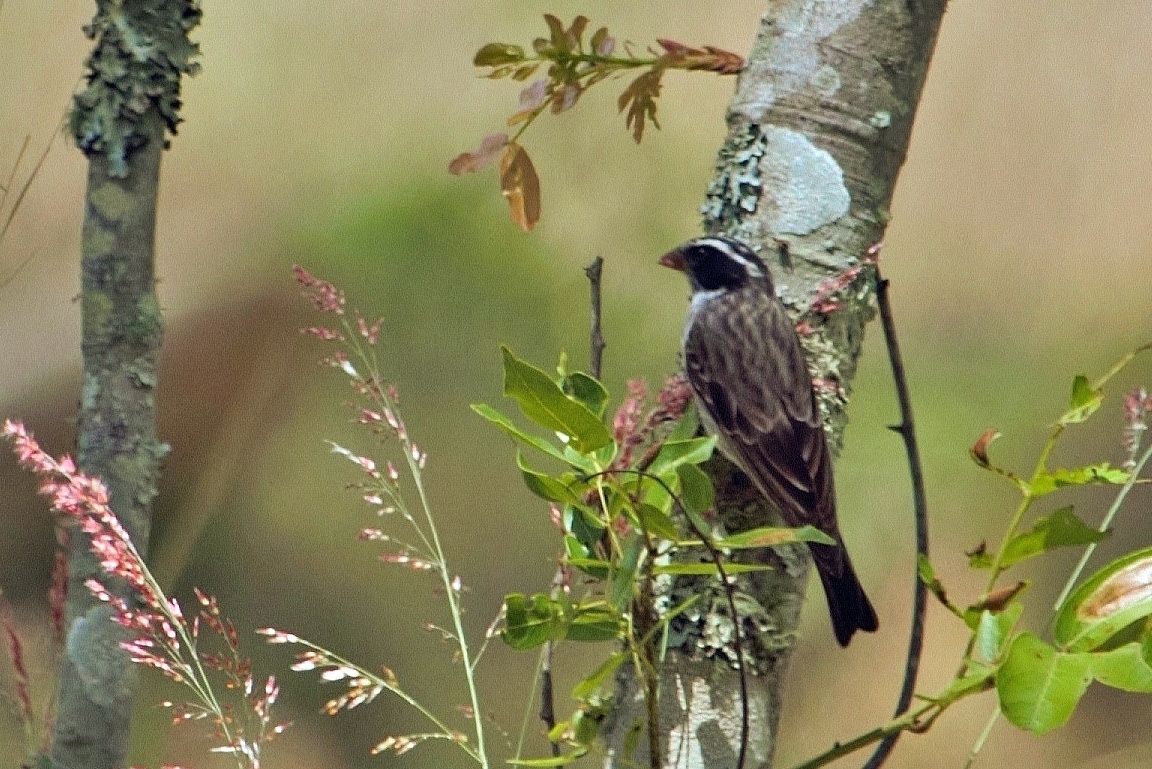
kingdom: Animalia
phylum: Chordata
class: Aves
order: Passeriformes
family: Fringillidae
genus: Crithagra
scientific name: Crithagra mennelli
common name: Black-eared seedeater
